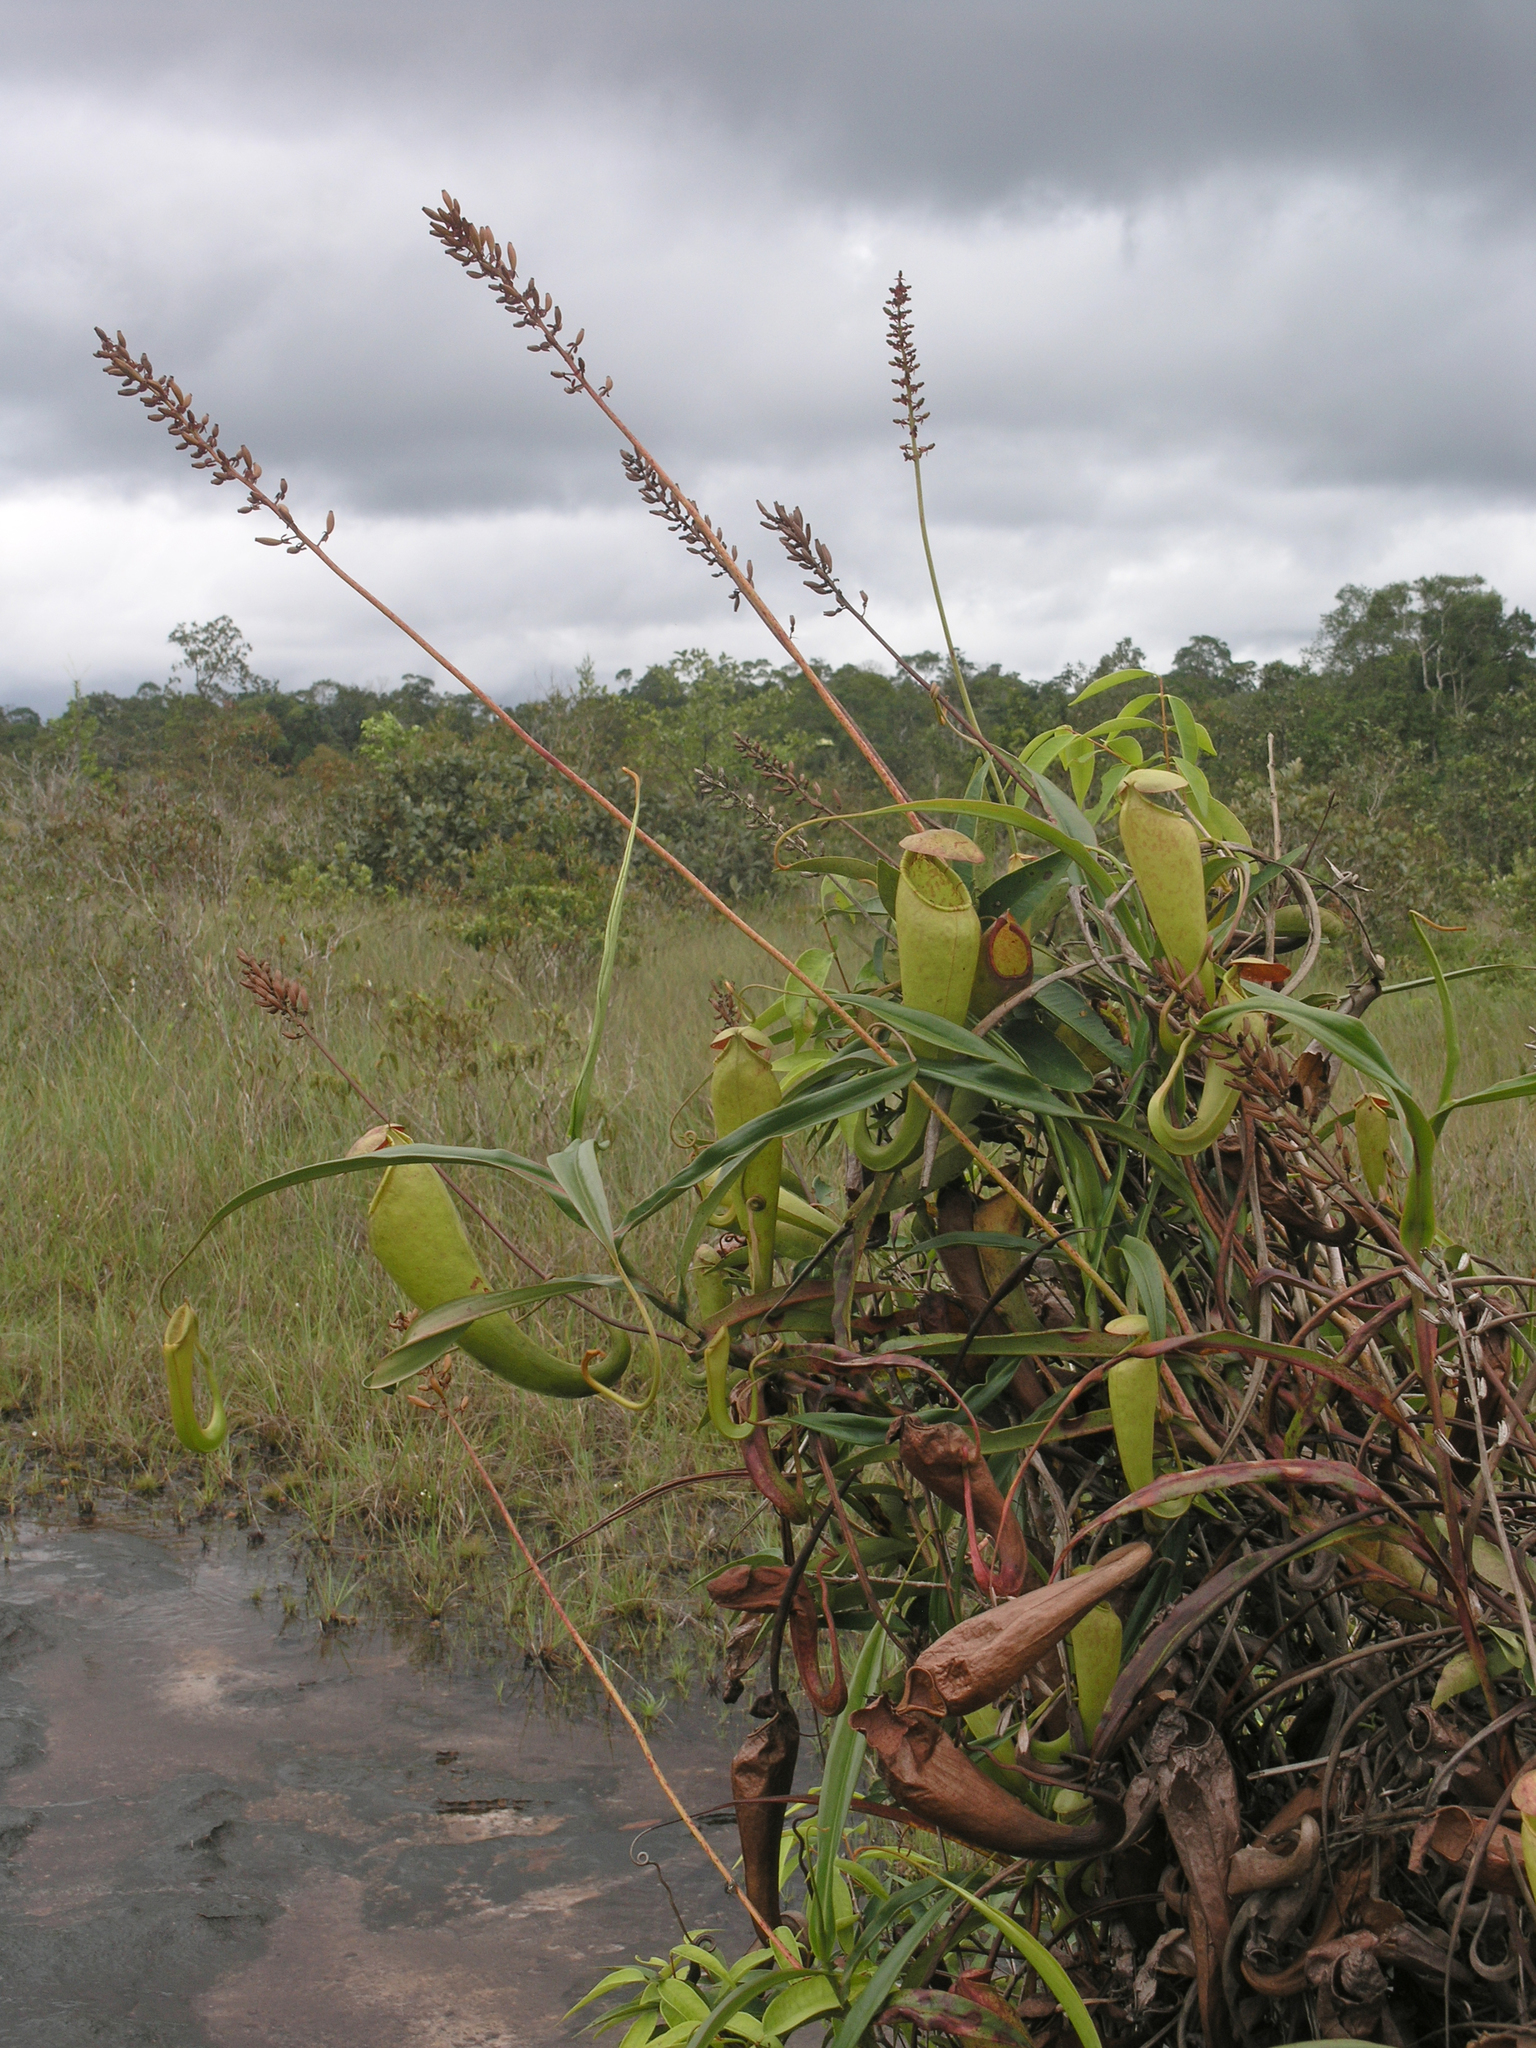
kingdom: Plantae
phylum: Tracheophyta
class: Magnoliopsida
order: Caryophyllales
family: Nepenthaceae
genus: Nepenthes
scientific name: Nepenthes kampotiana
